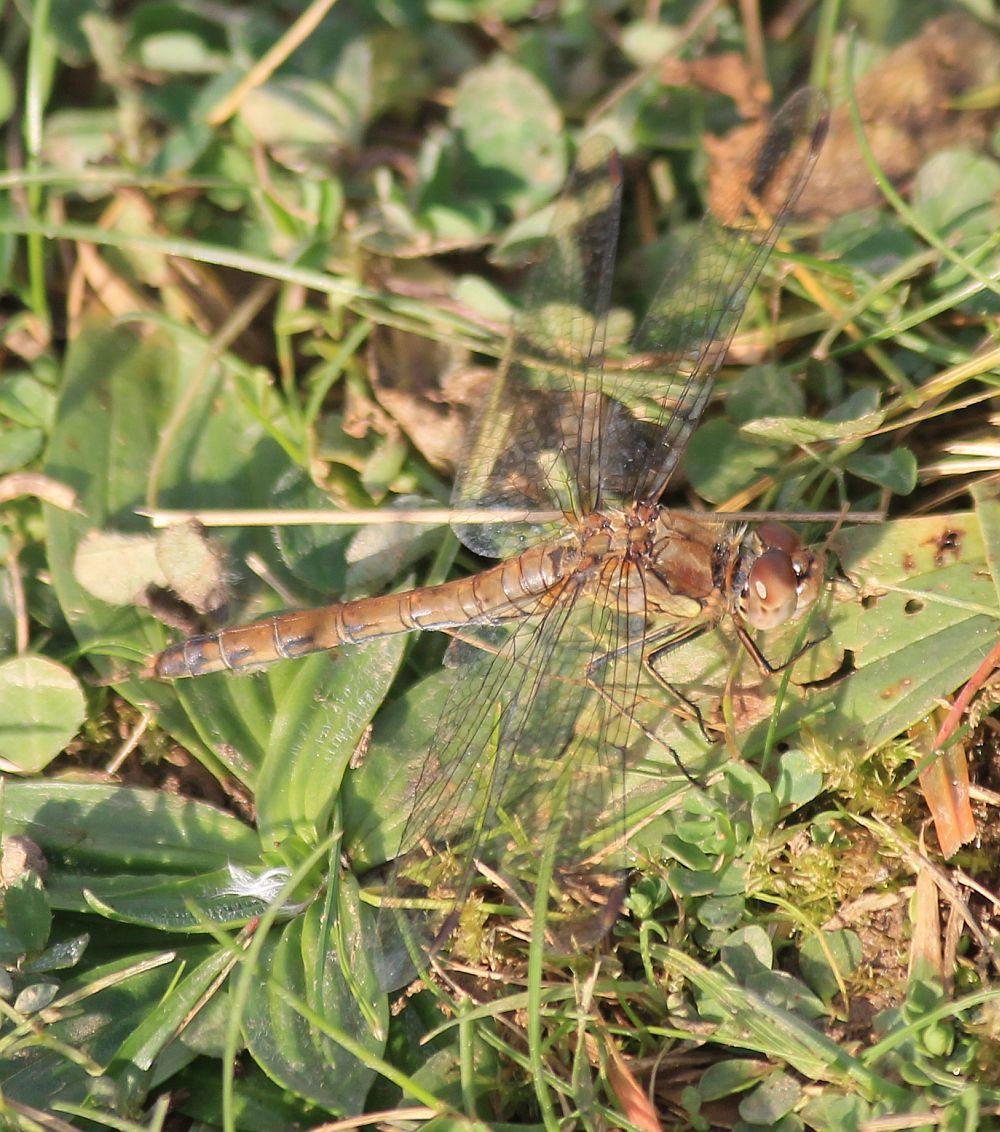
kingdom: Animalia
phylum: Arthropoda
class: Insecta
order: Odonata
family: Libellulidae
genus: Sympetrum
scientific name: Sympetrum striolatum
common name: Common darter
